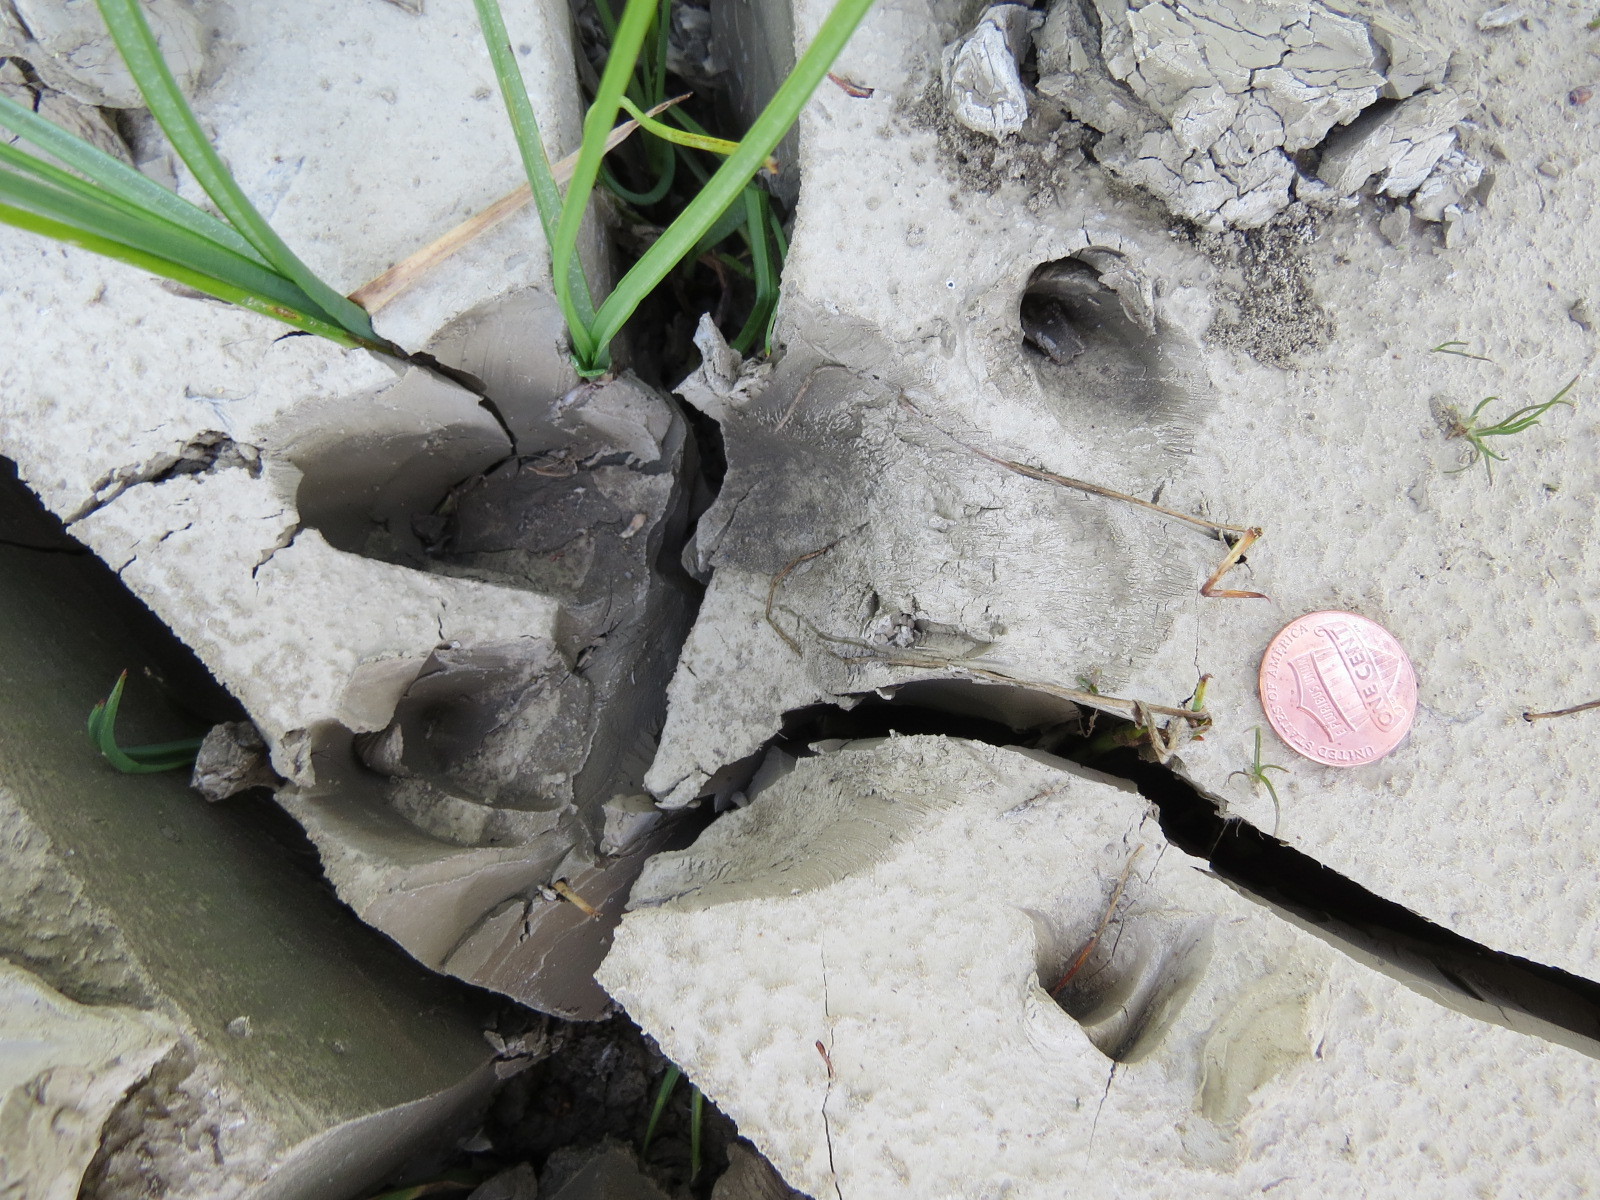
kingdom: Animalia
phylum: Chordata
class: Mammalia
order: Artiodactyla
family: Suidae
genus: Sus
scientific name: Sus scrofa
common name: Wild boar
